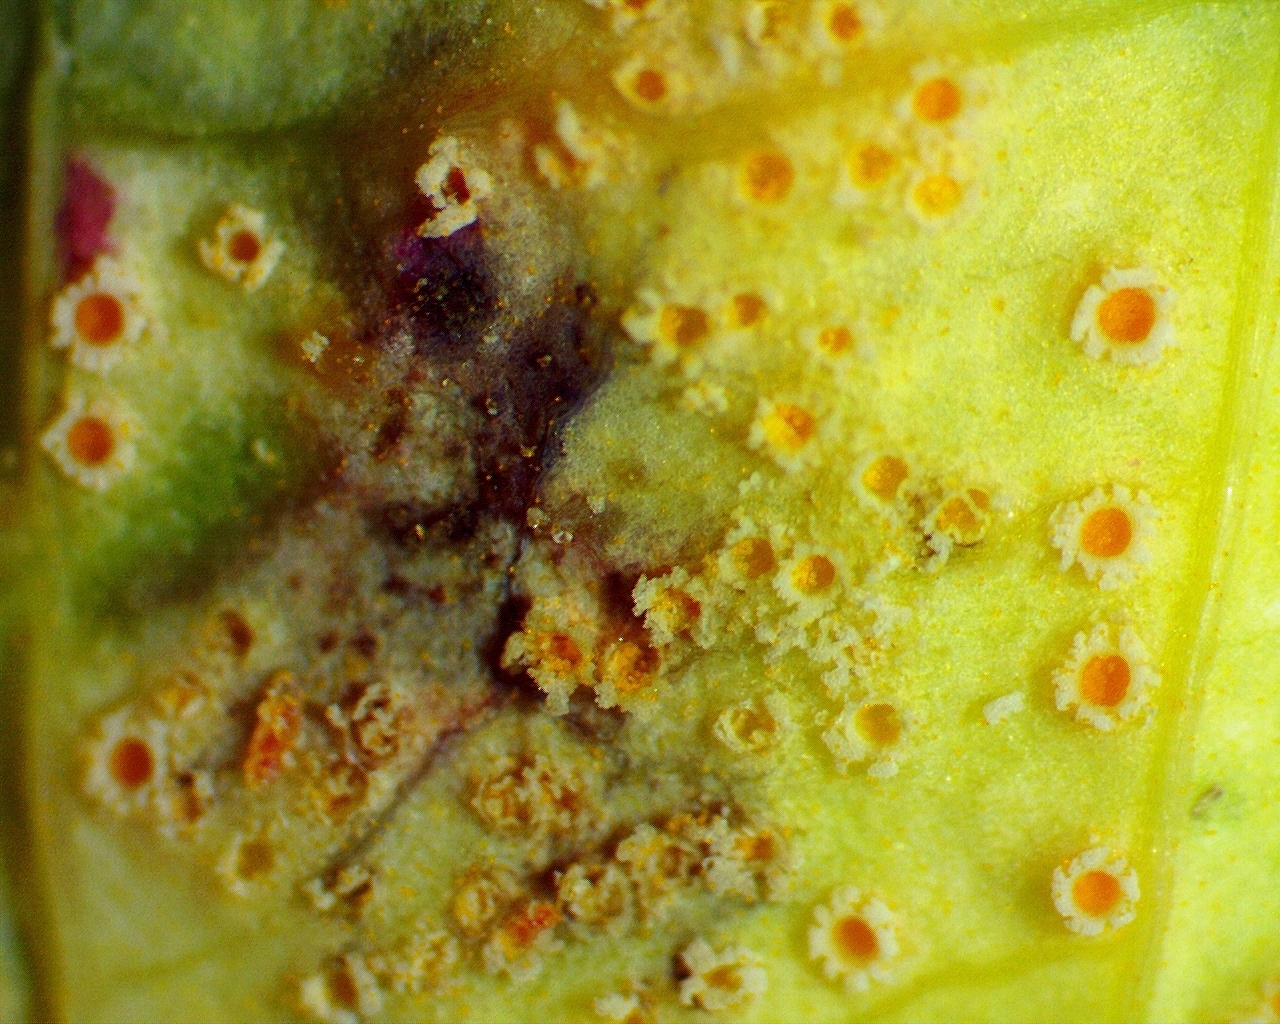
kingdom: Fungi
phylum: Basidiomycota
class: Pucciniomycetes
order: Pucciniales
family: Pucciniaceae
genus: Puccinia
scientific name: Puccinia recondita
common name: Brown rust of wheat
